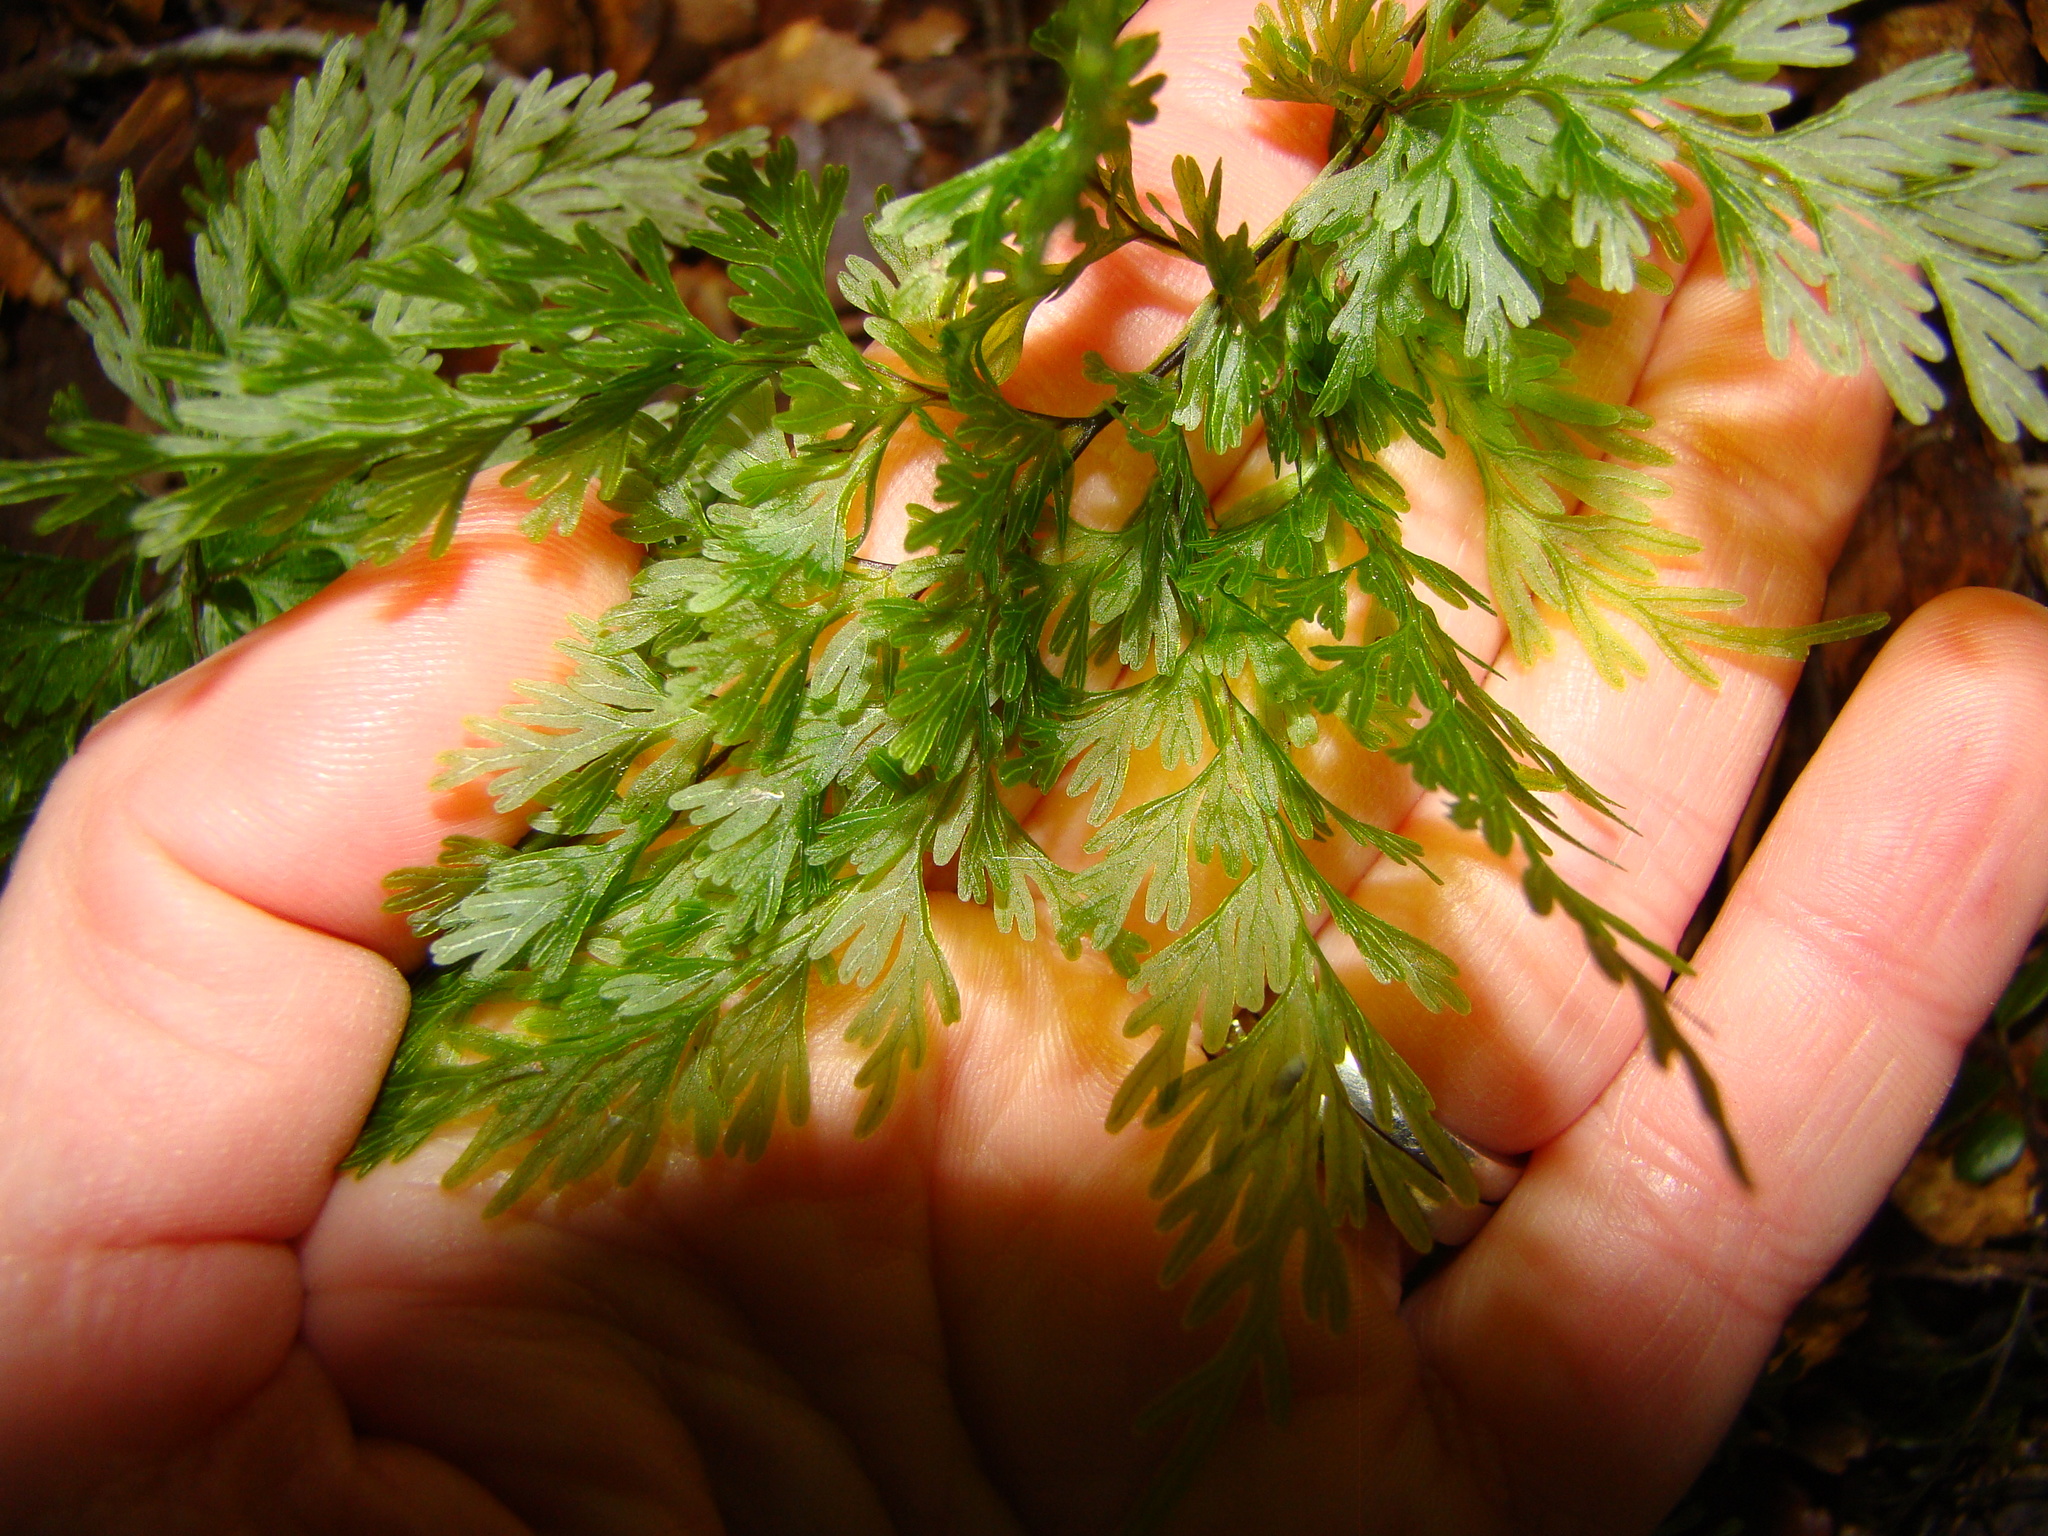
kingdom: Plantae
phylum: Tracheophyta
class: Polypodiopsida
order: Hymenophyllales
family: Hymenophyllaceae
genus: Hymenophyllum
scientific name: Hymenophyllum demissum
